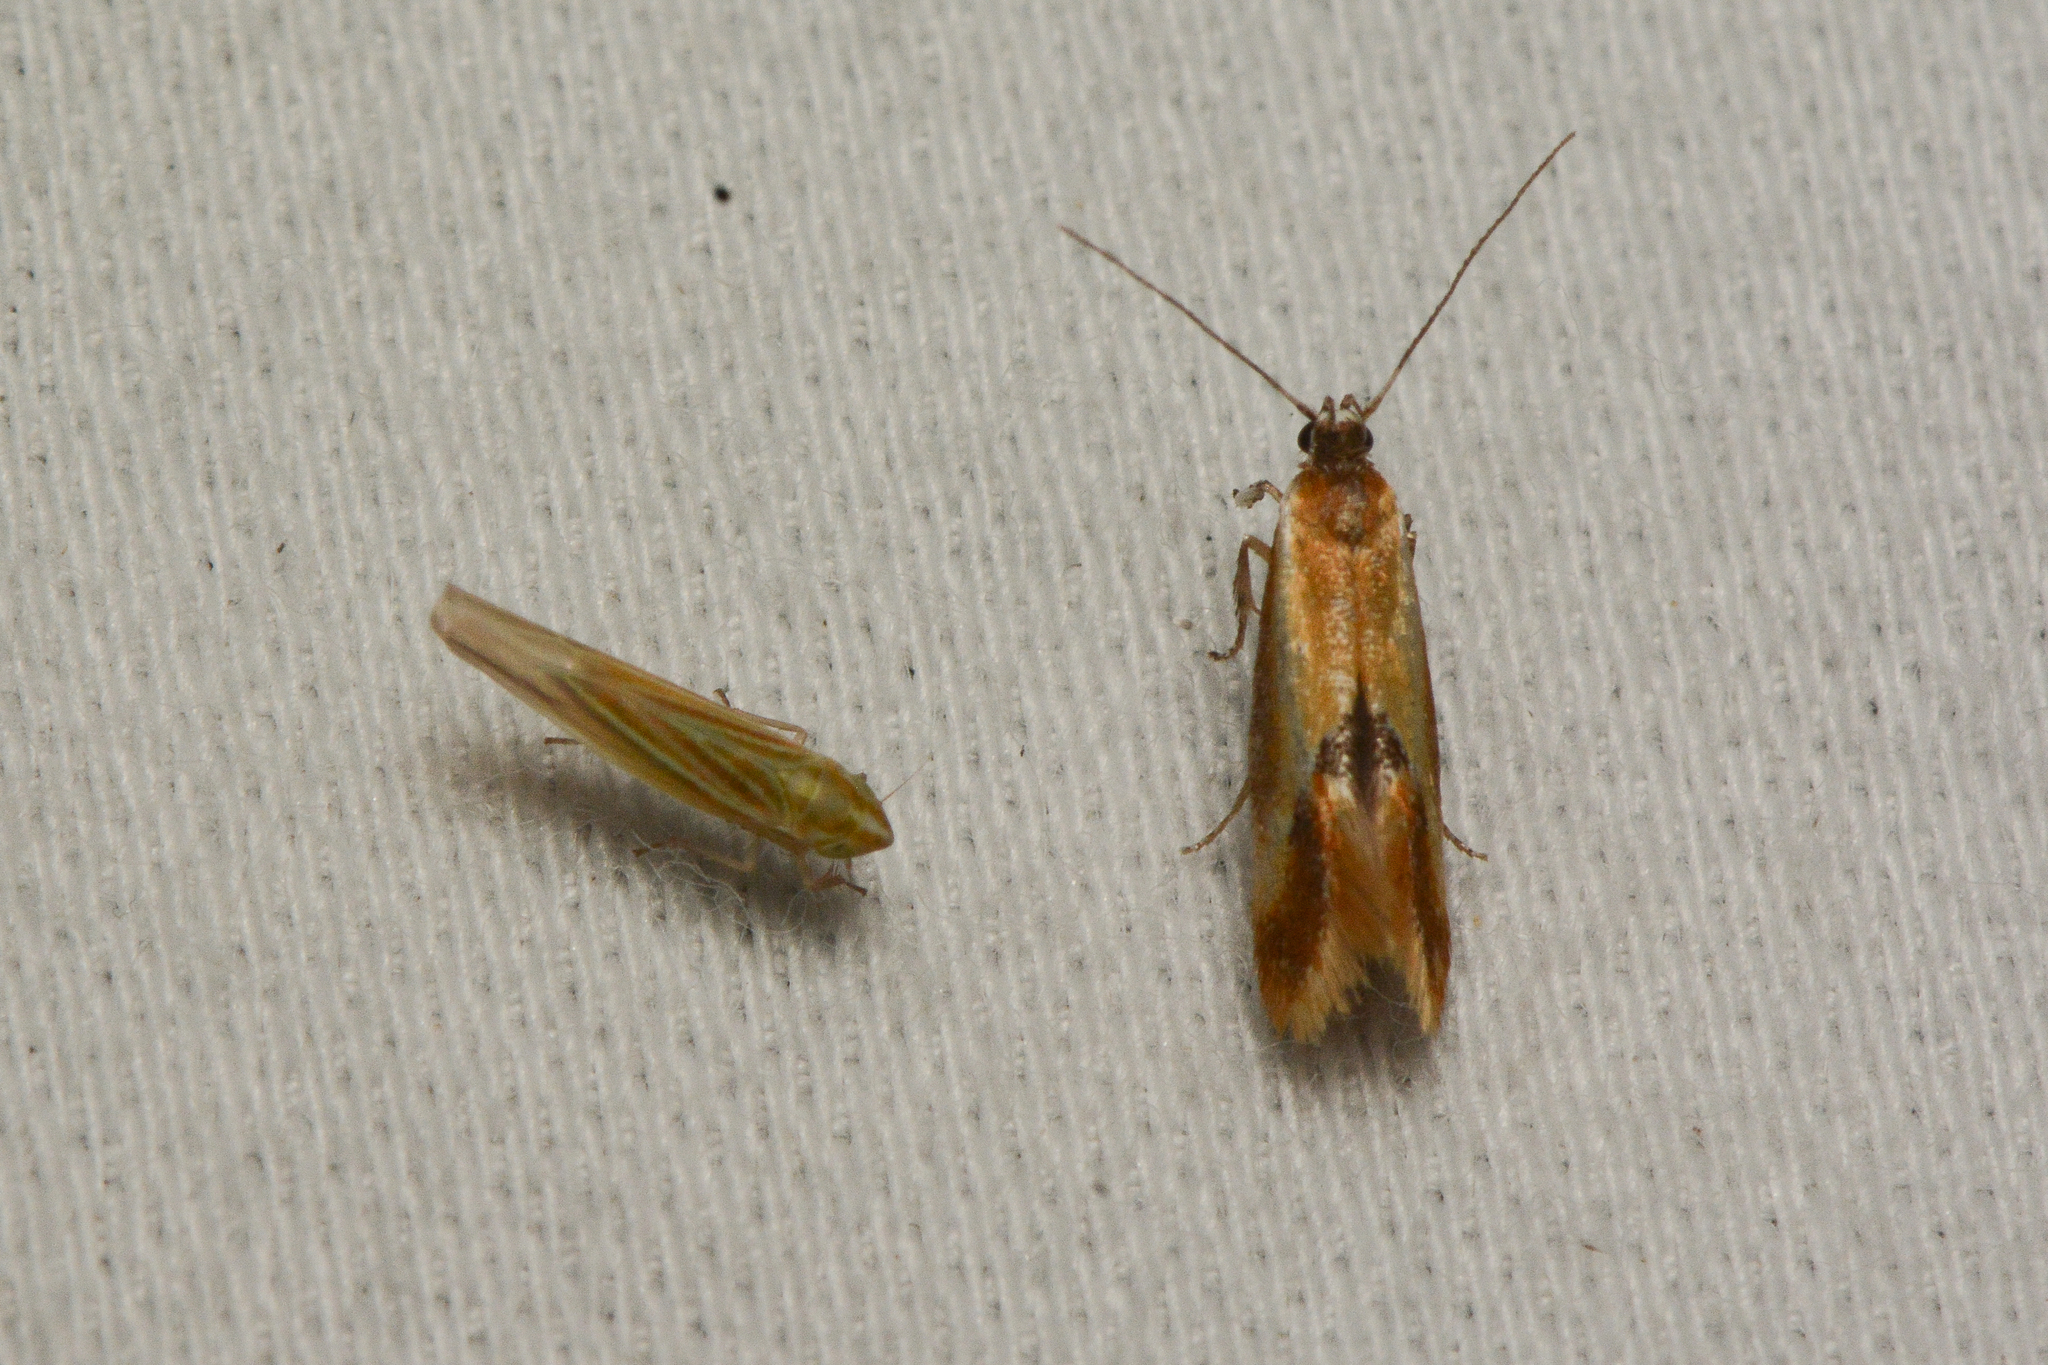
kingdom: Animalia
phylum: Arthropoda
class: Insecta
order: Lepidoptera
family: Oecophoridae
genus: Batia
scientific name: Batia lunaris
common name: Moth
